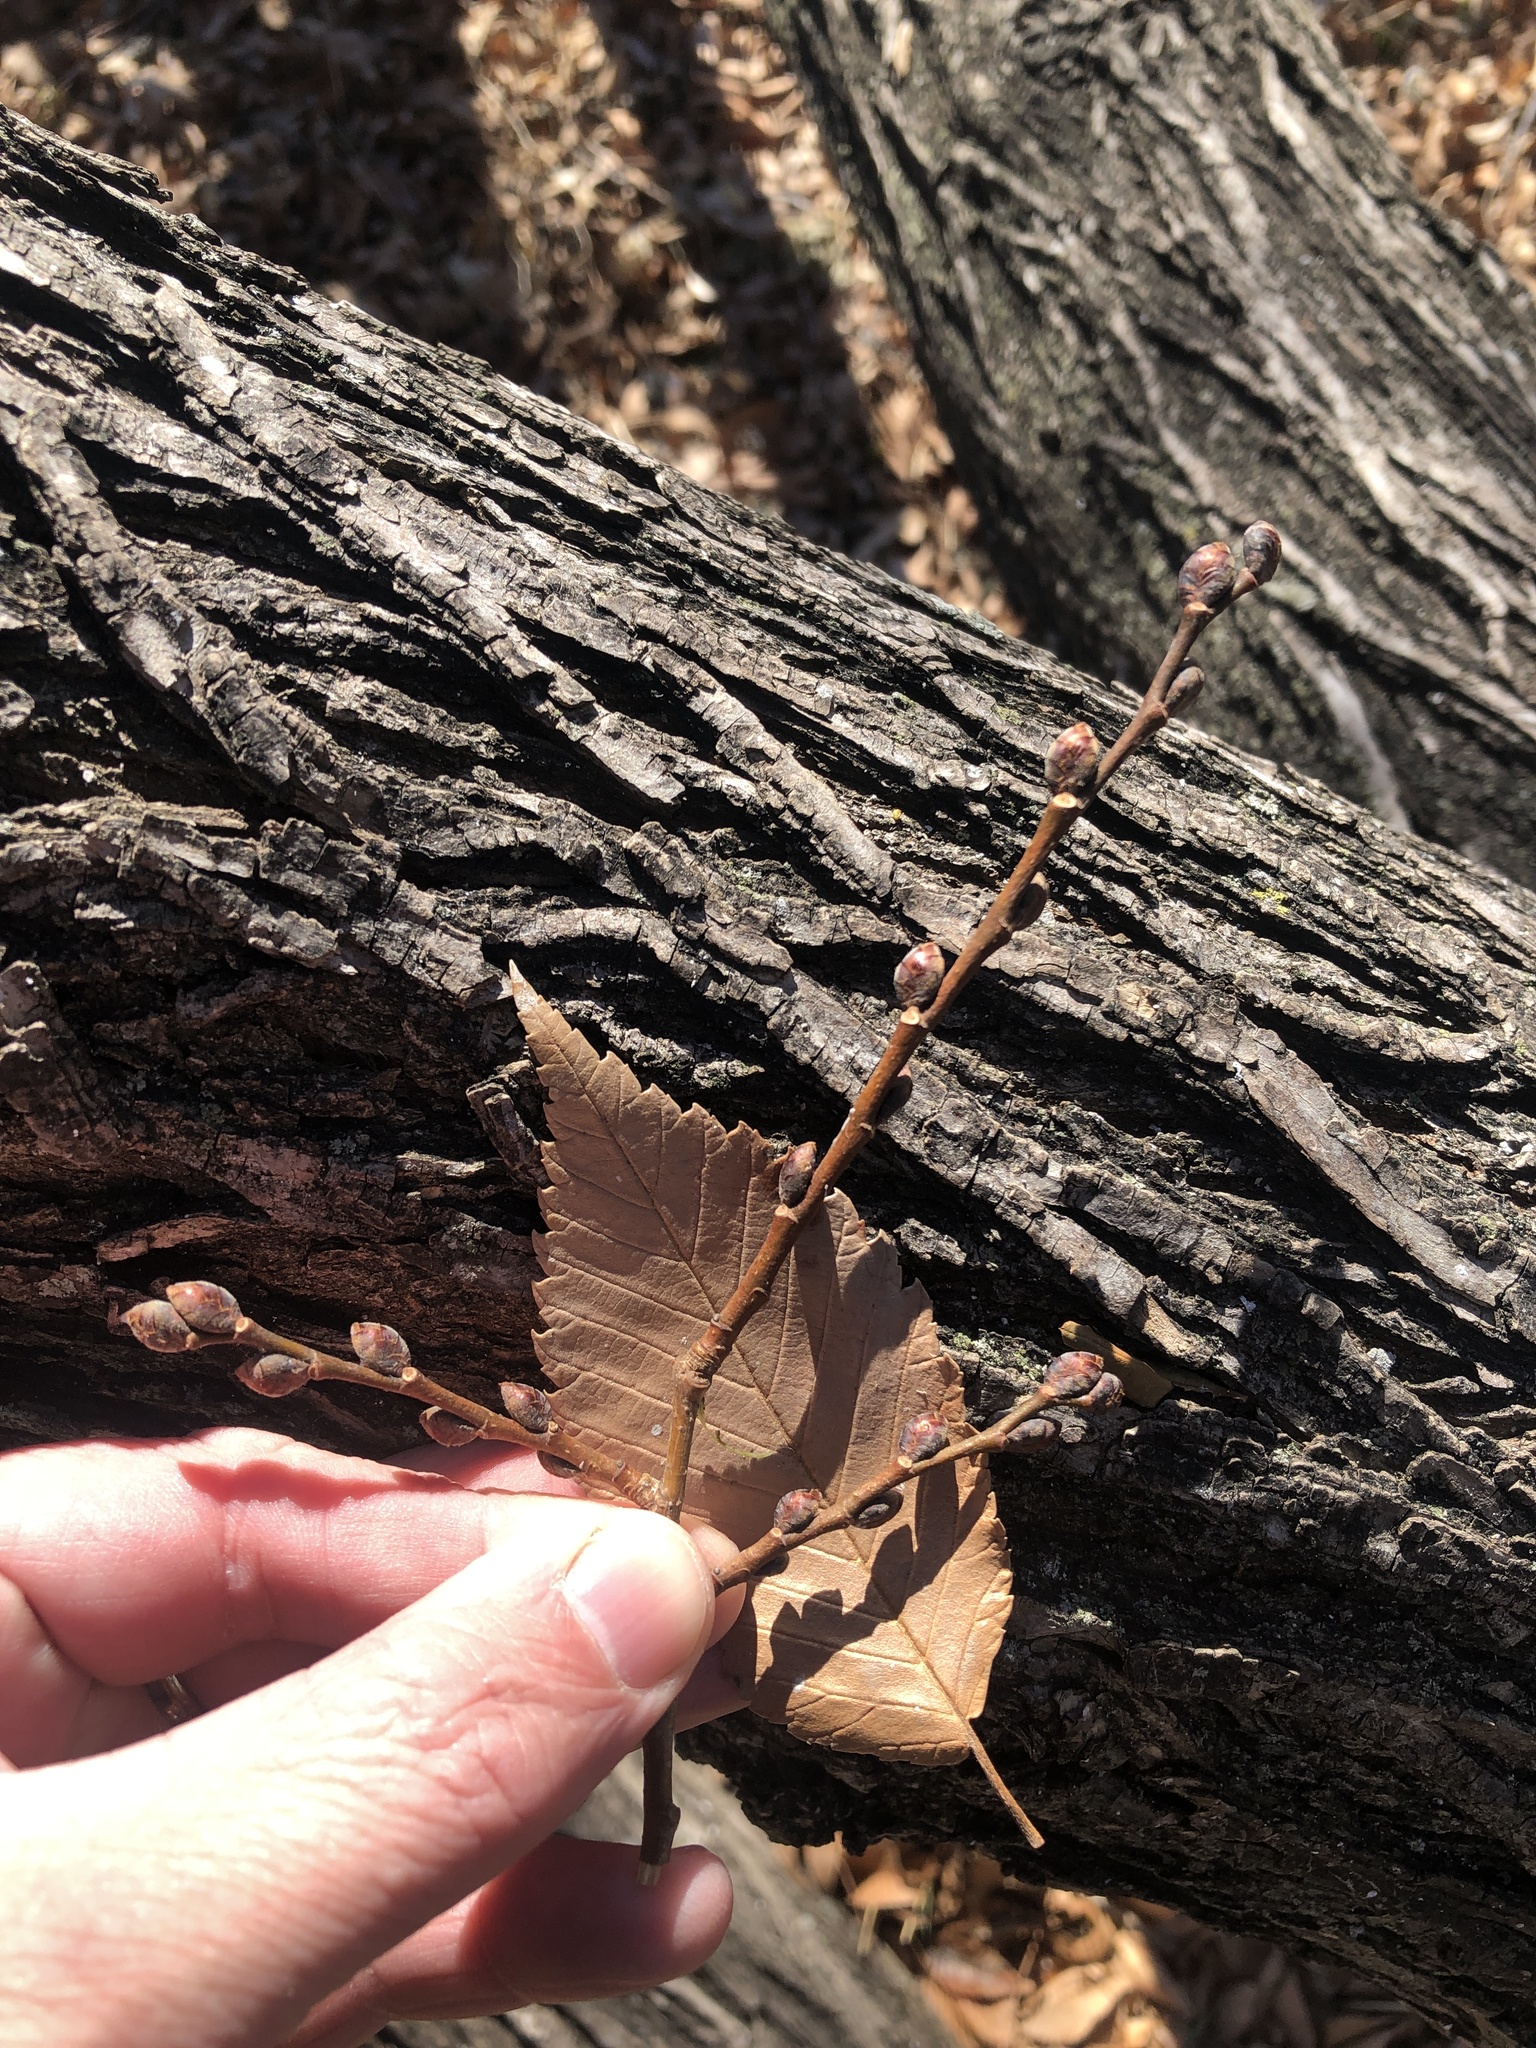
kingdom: Plantae
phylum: Tracheophyta
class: Magnoliopsida
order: Rosales
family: Ulmaceae
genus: Ulmus
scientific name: Ulmus americana
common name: American elm
